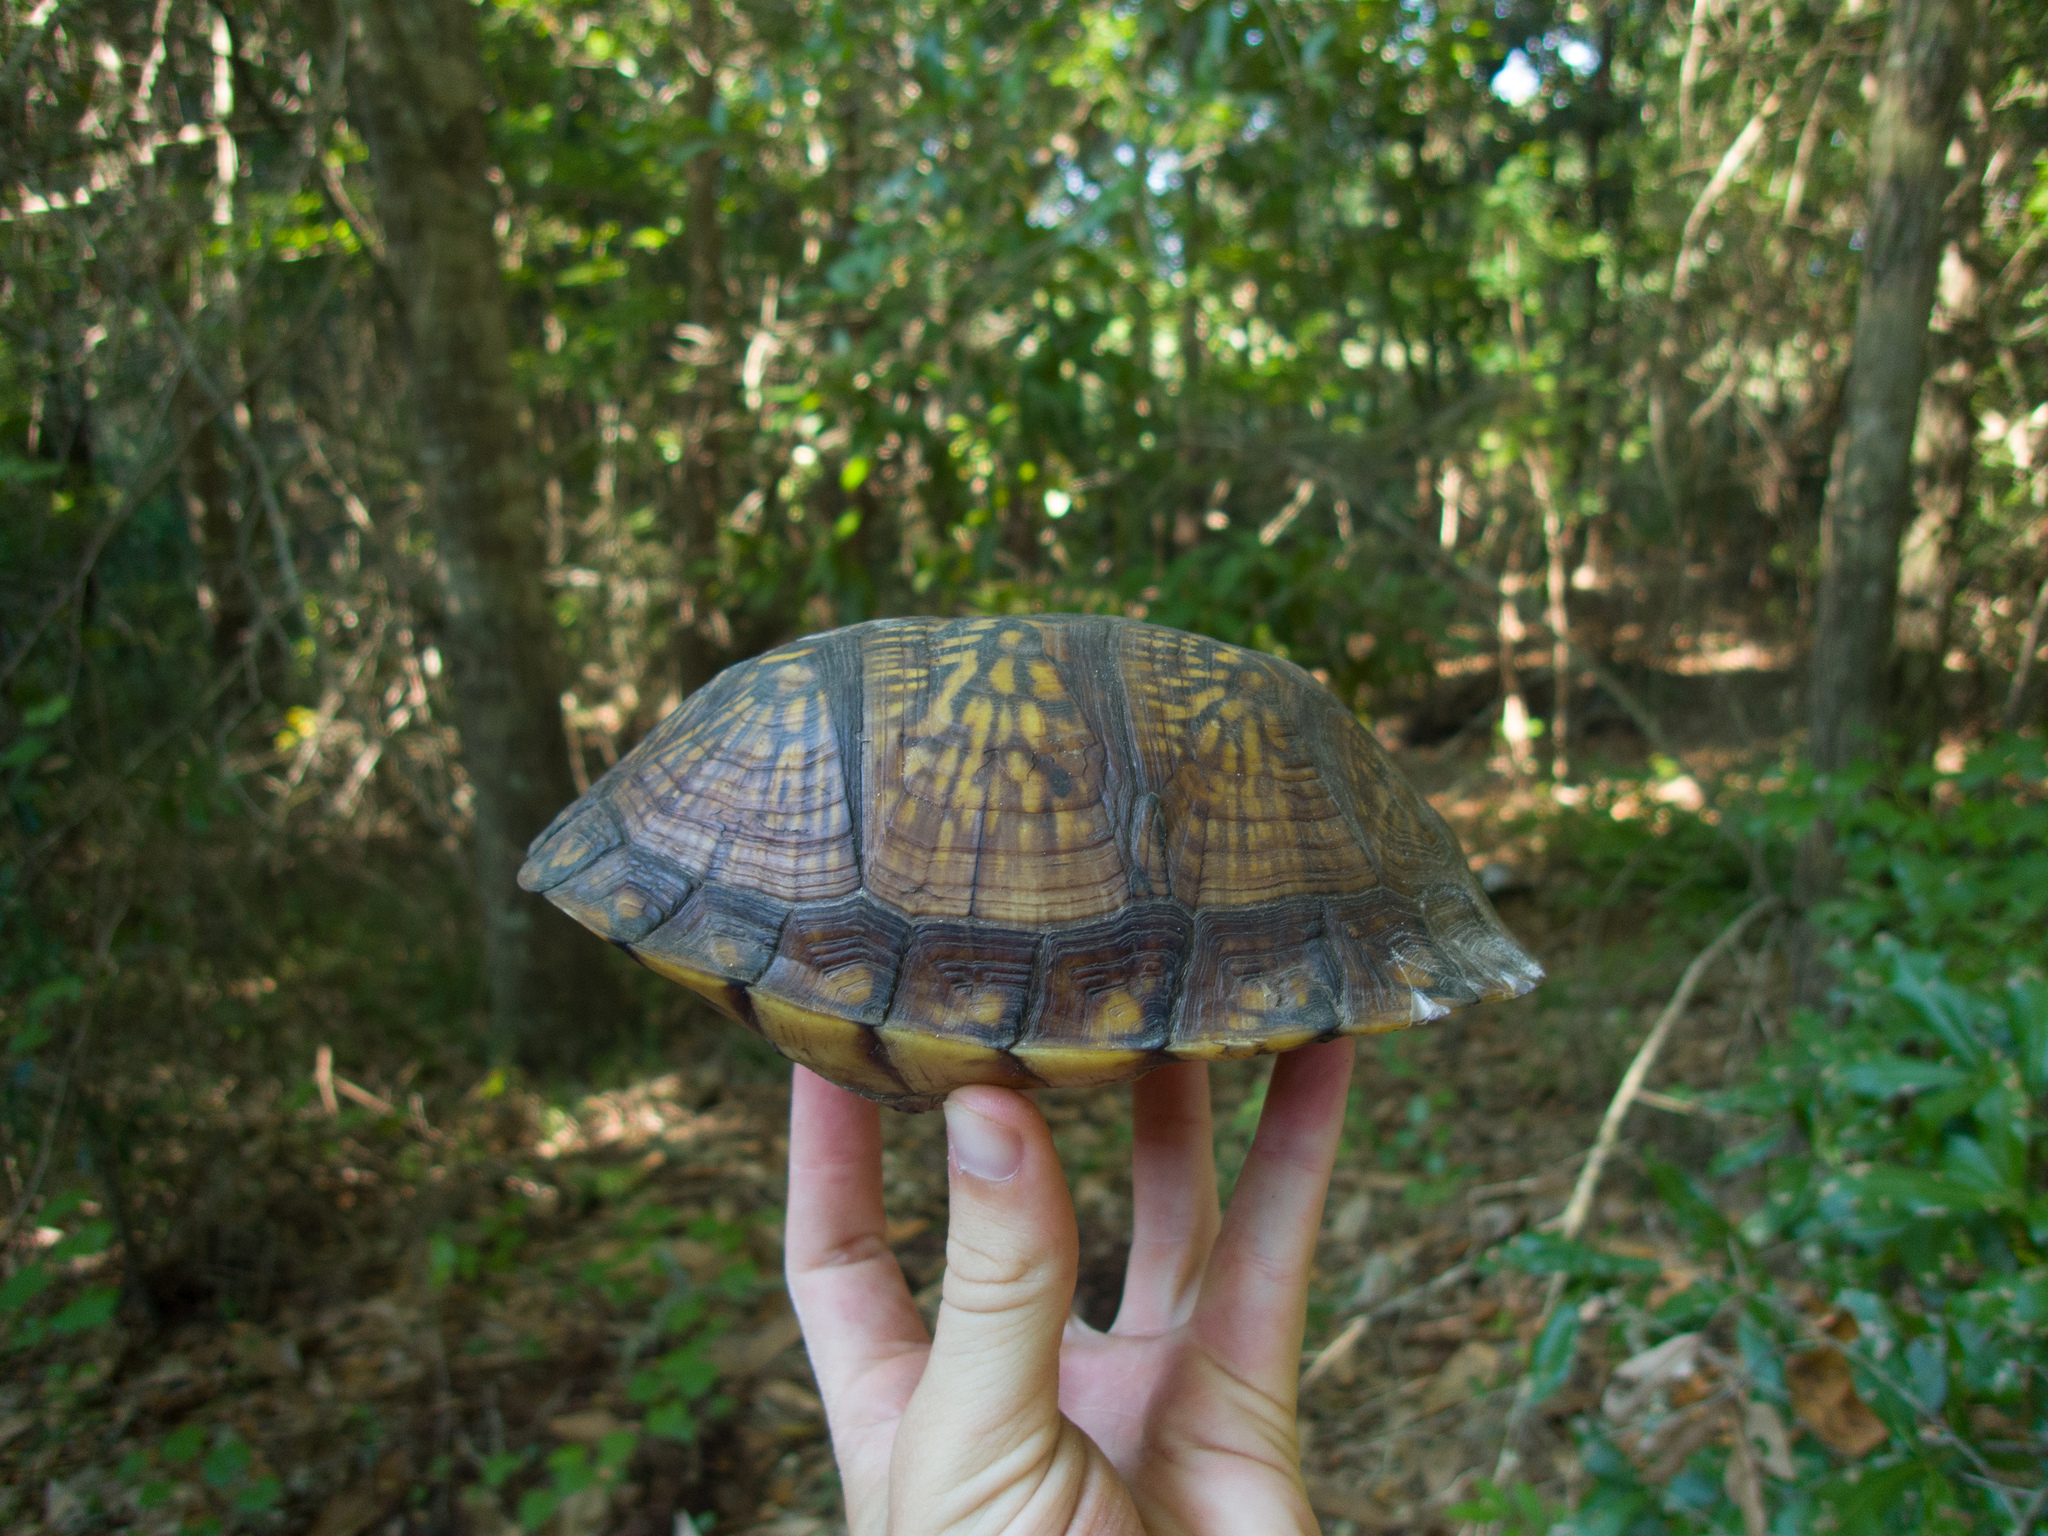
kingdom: Animalia
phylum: Chordata
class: Testudines
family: Emydidae
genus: Terrapene
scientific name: Terrapene carolina
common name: Common box turtle
